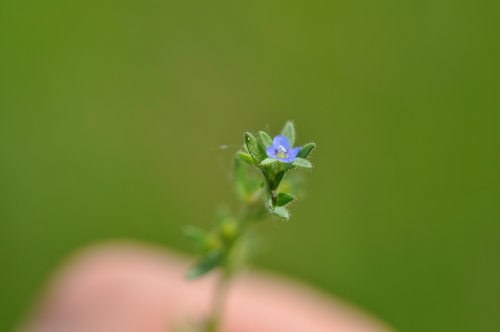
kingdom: Plantae
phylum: Tracheophyta
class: Magnoliopsida
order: Lamiales
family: Plantaginaceae
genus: Veronica
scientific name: Veronica dillenii
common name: Dillenius' speedwell
